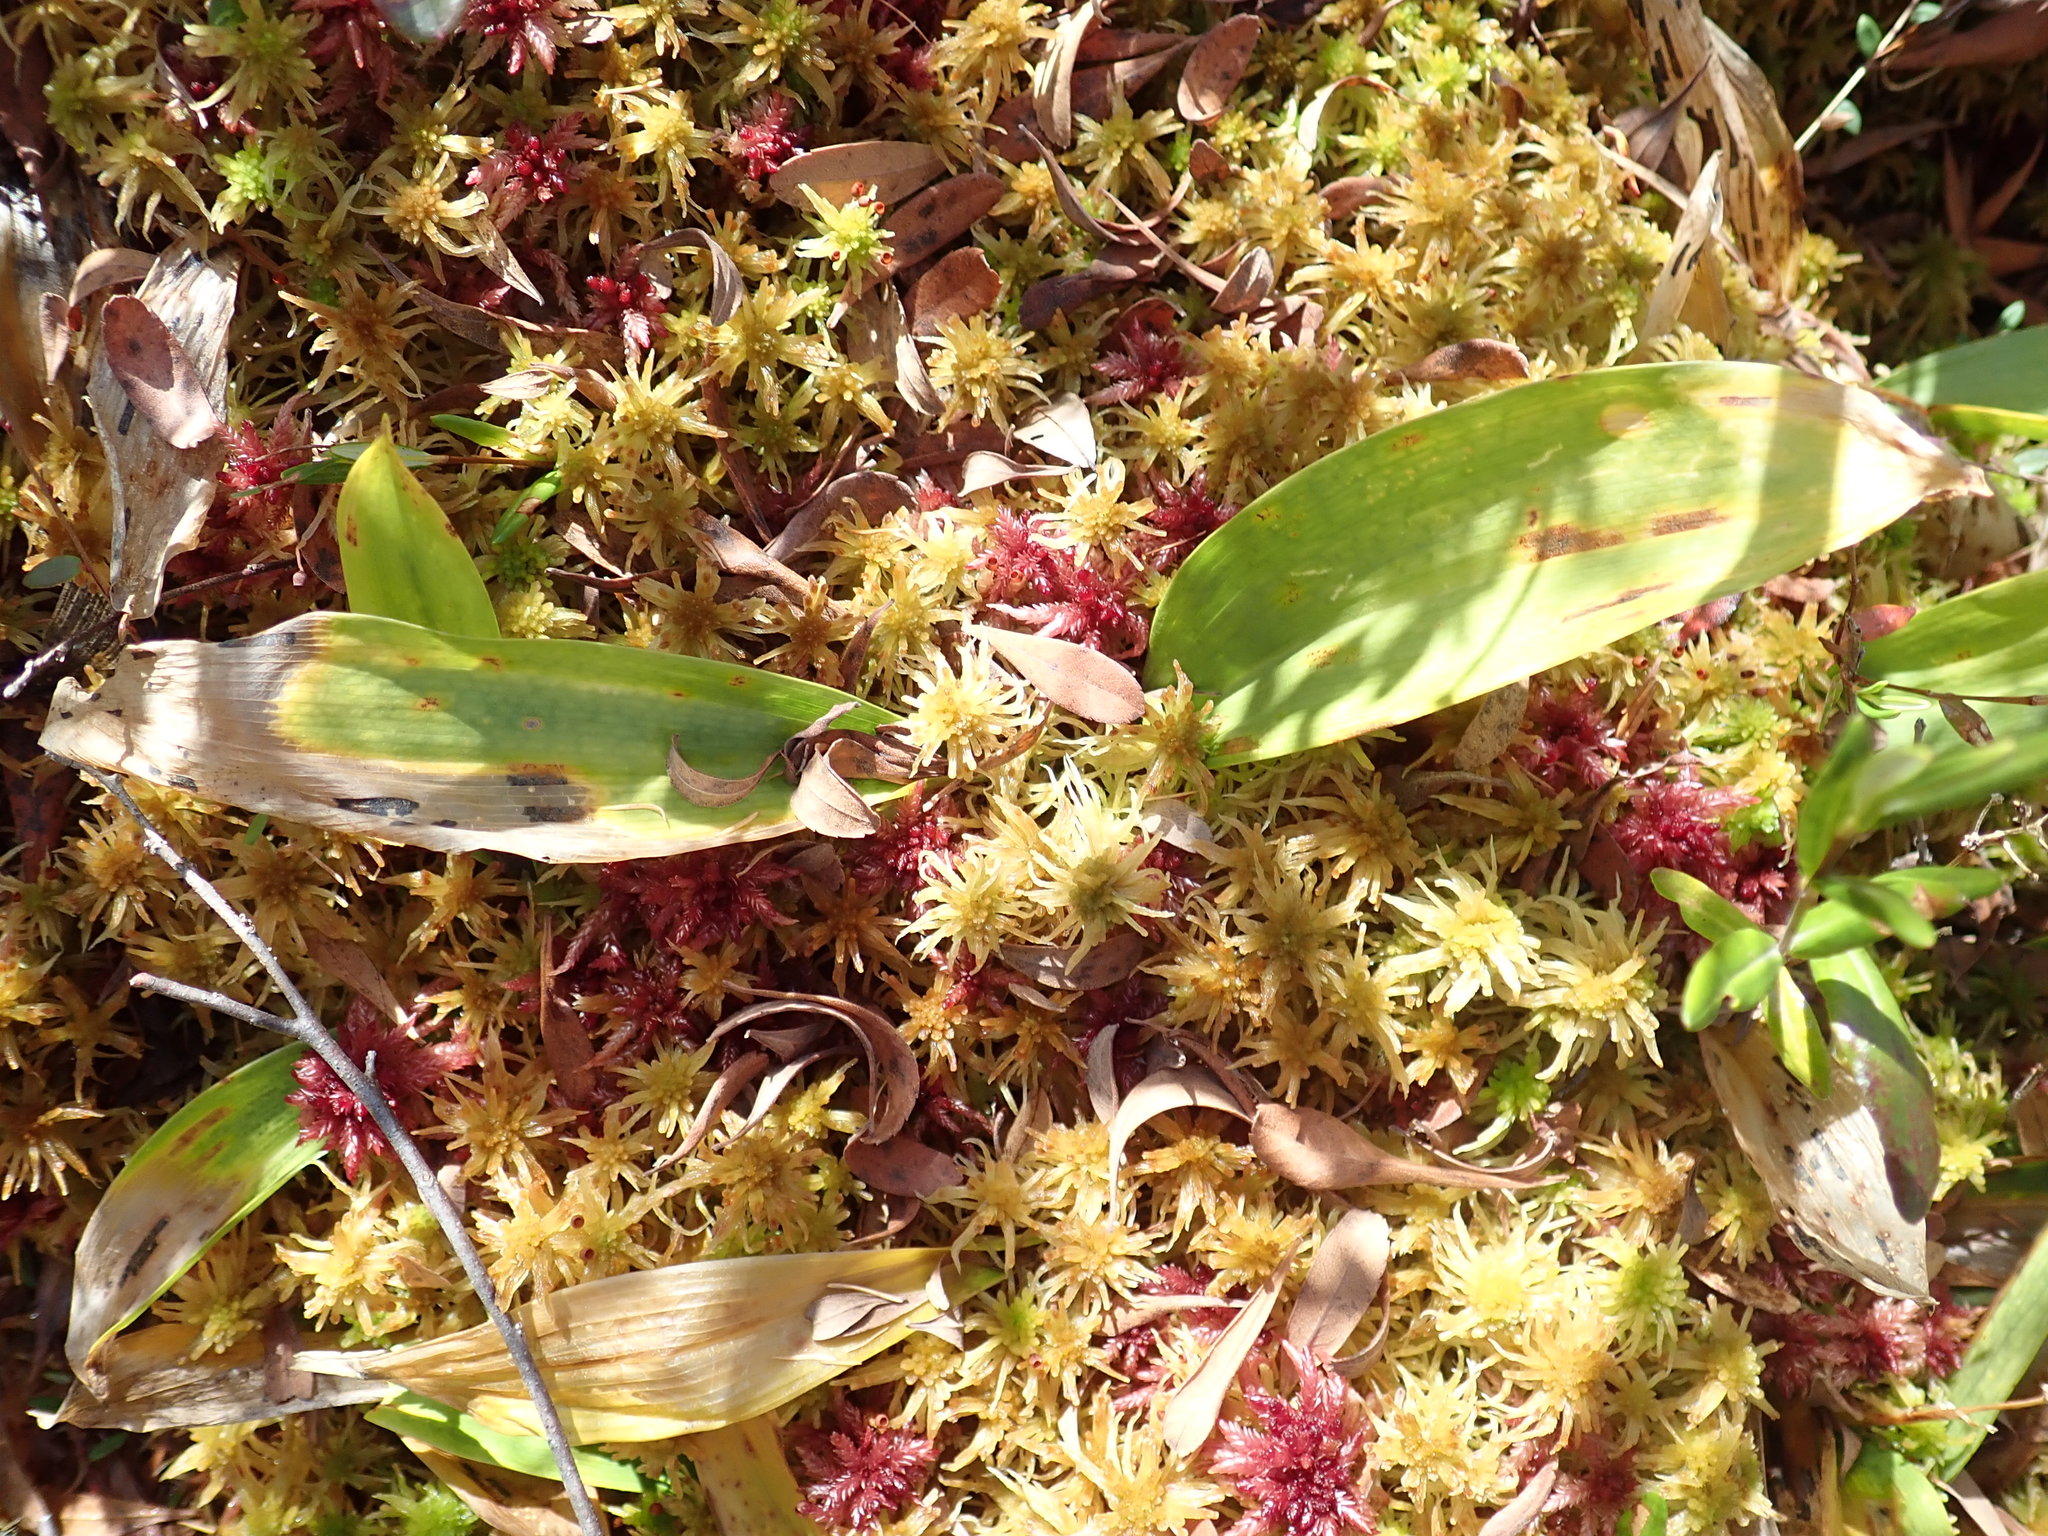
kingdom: Plantae
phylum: Tracheophyta
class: Liliopsida
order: Asparagales
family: Asparagaceae
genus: Maianthemum
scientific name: Maianthemum trifolium
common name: Swamp false solomon's seal
